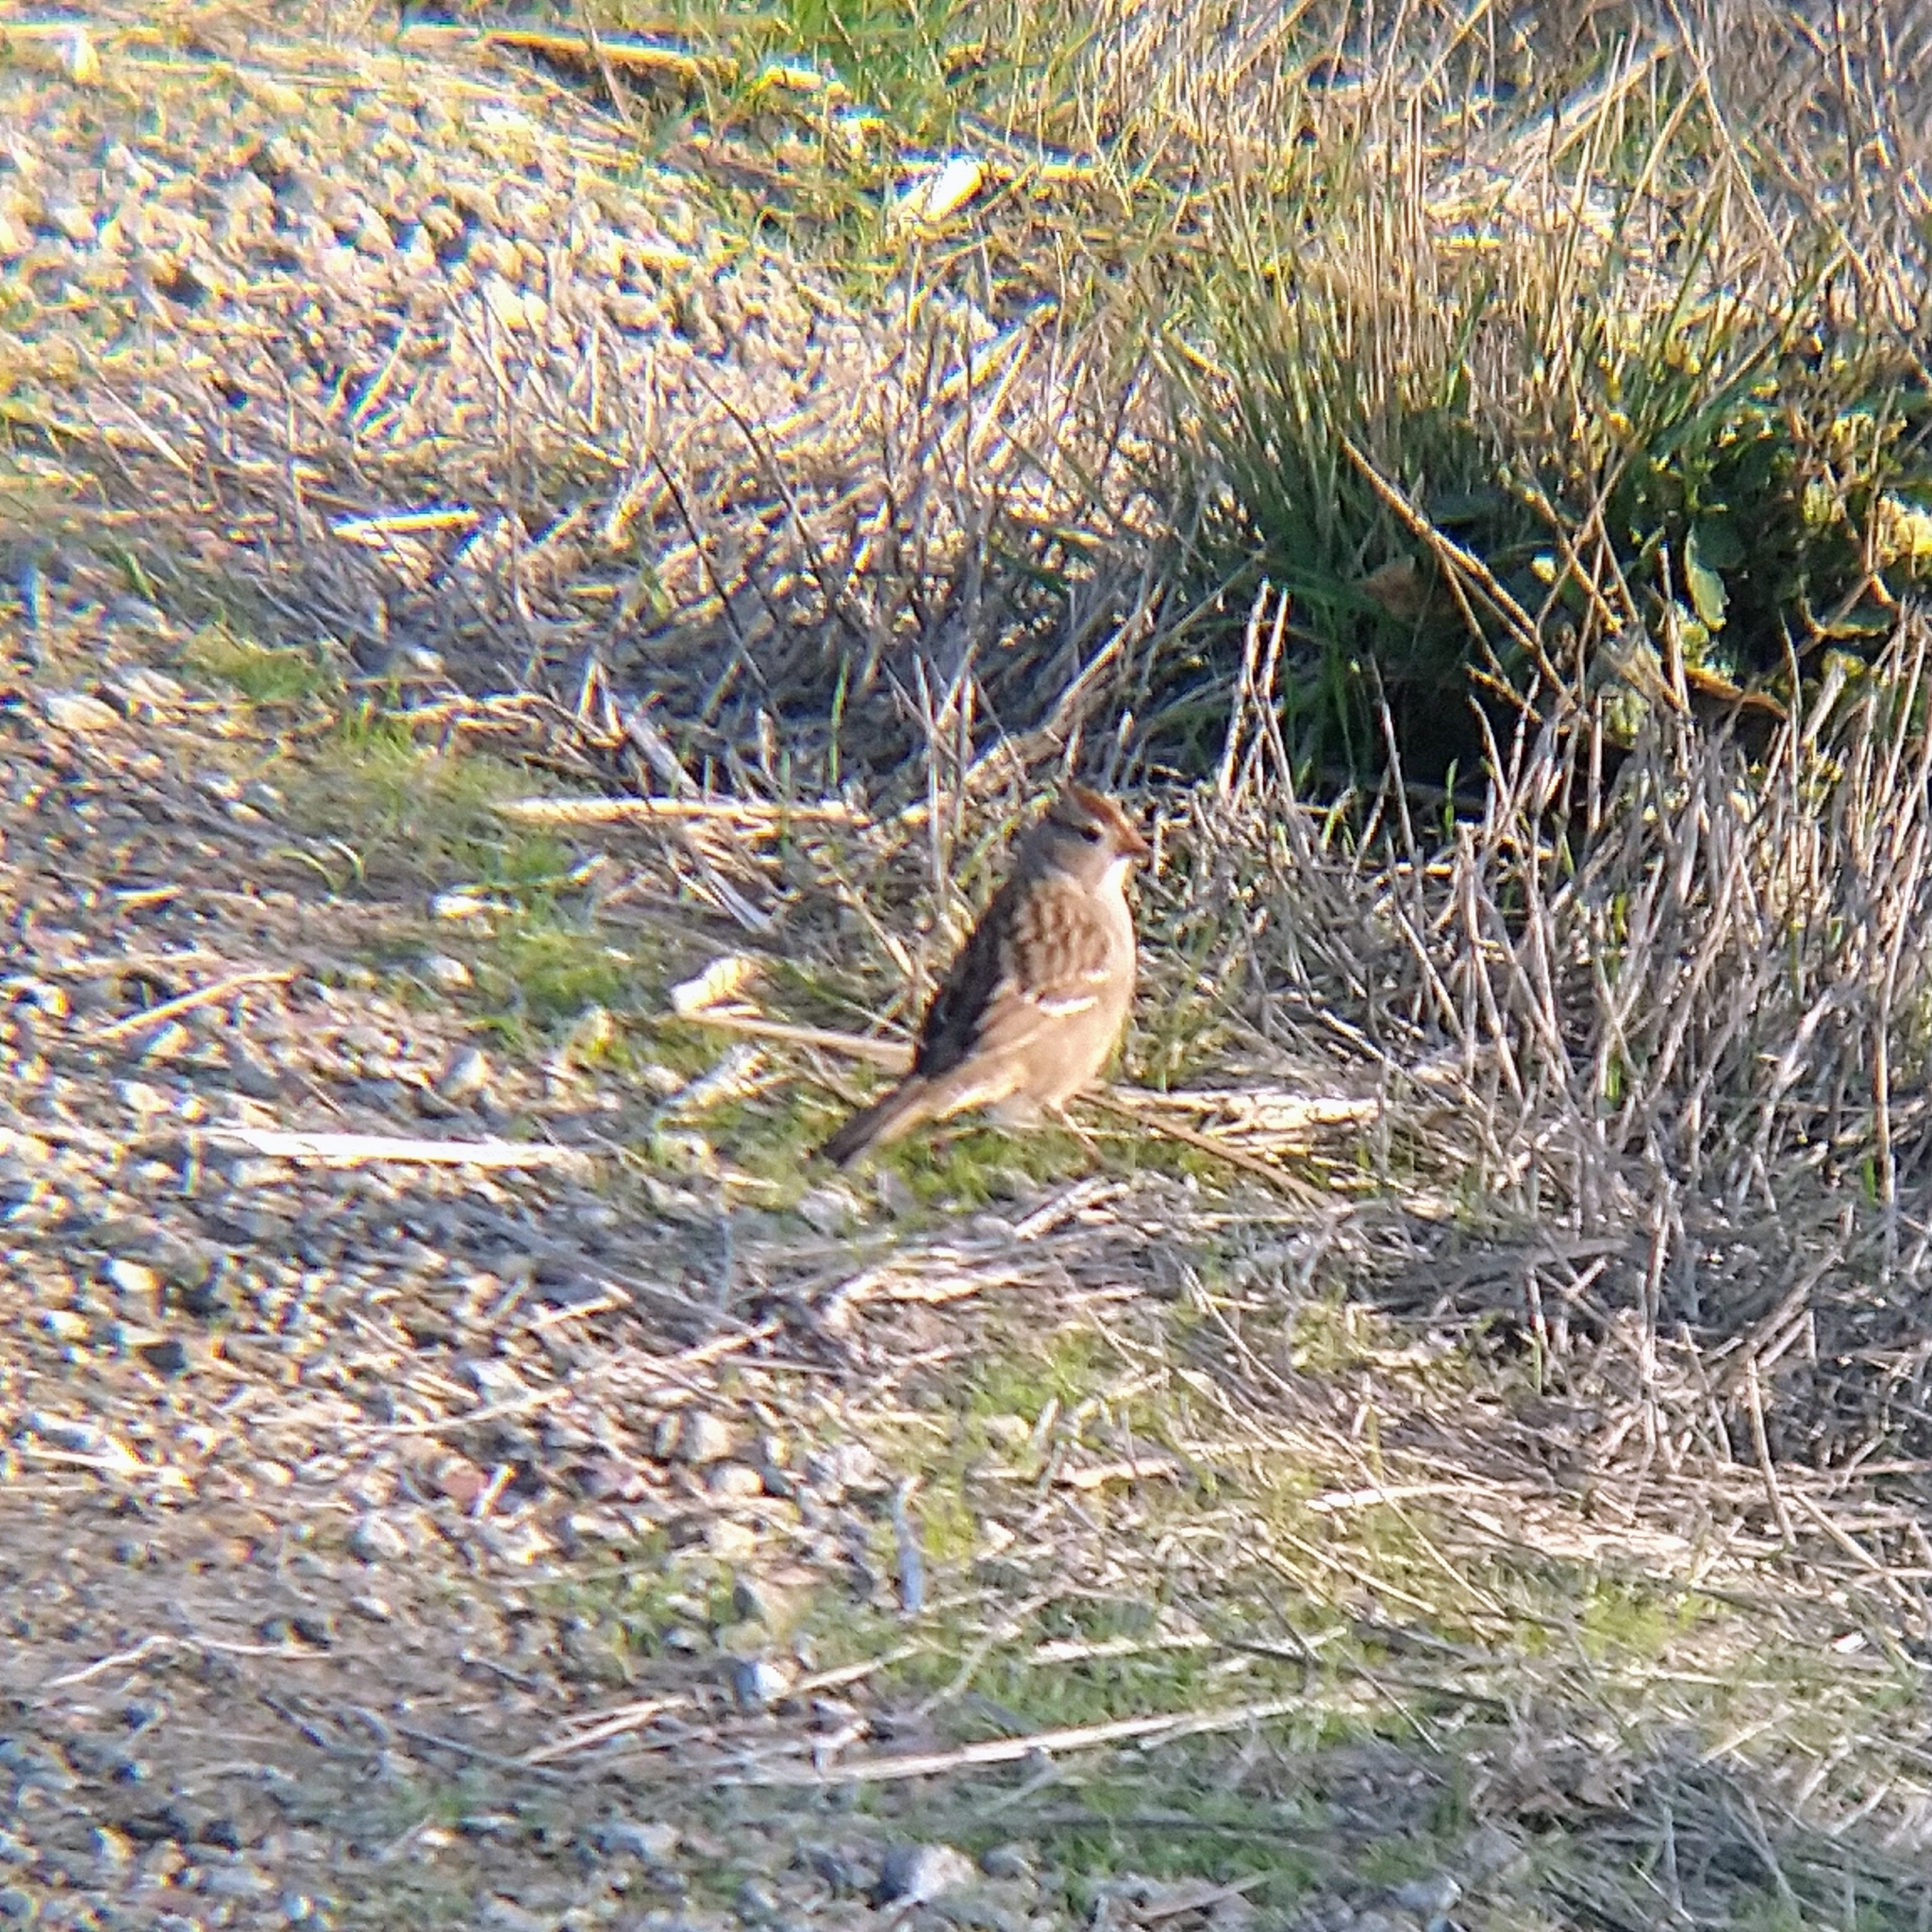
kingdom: Animalia
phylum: Chordata
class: Aves
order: Passeriformes
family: Passerellidae
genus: Zonotrichia
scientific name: Zonotrichia leucophrys
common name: White-crowned sparrow
